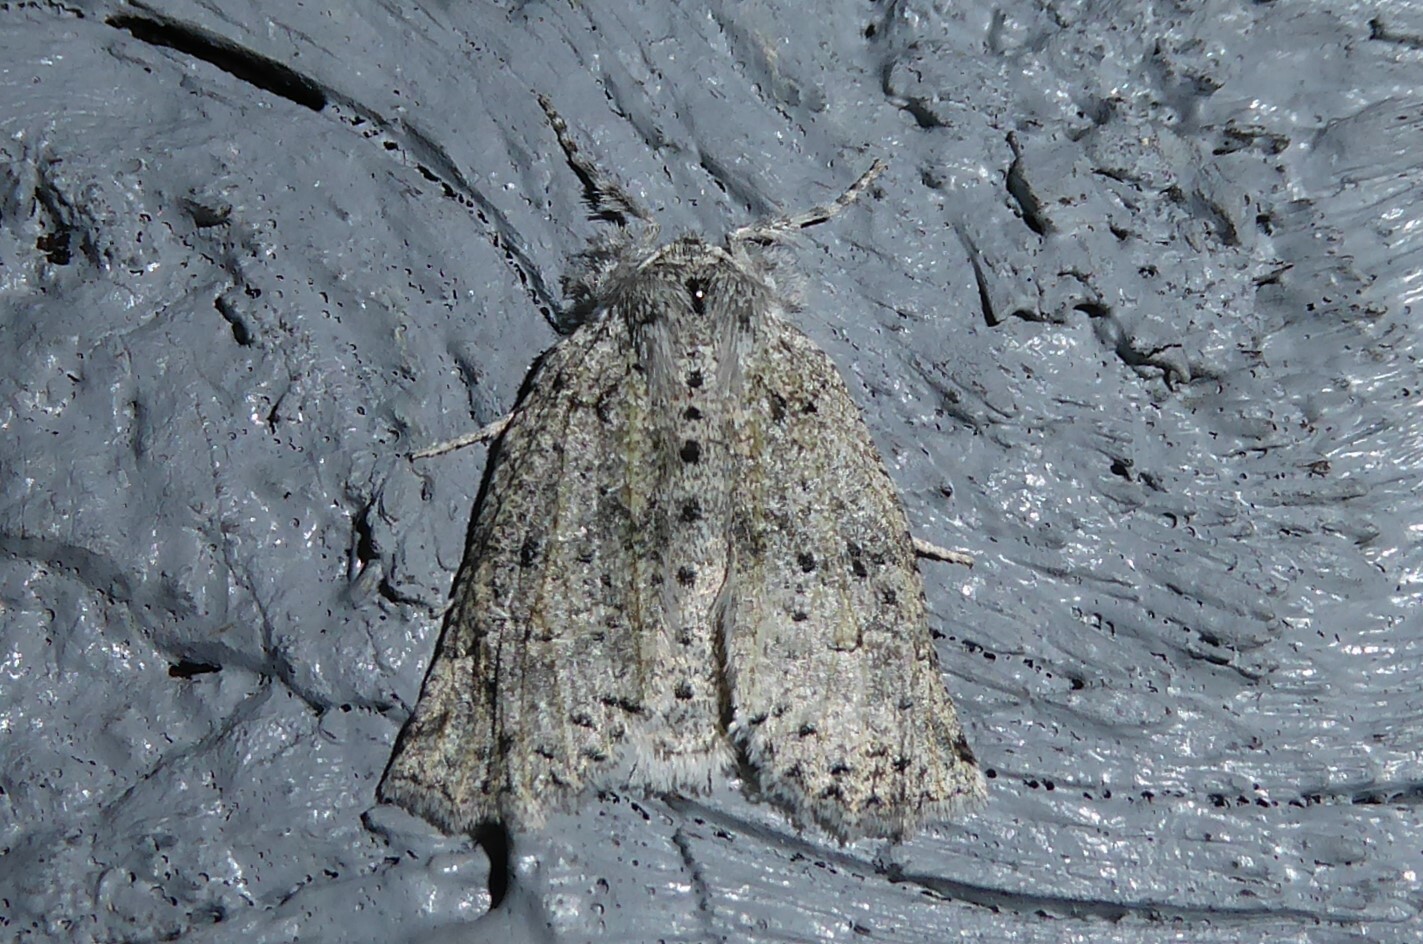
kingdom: Animalia
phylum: Arthropoda
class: Insecta
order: Lepidoptera
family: Geometridae
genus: Declana
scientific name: Declana floccosa
